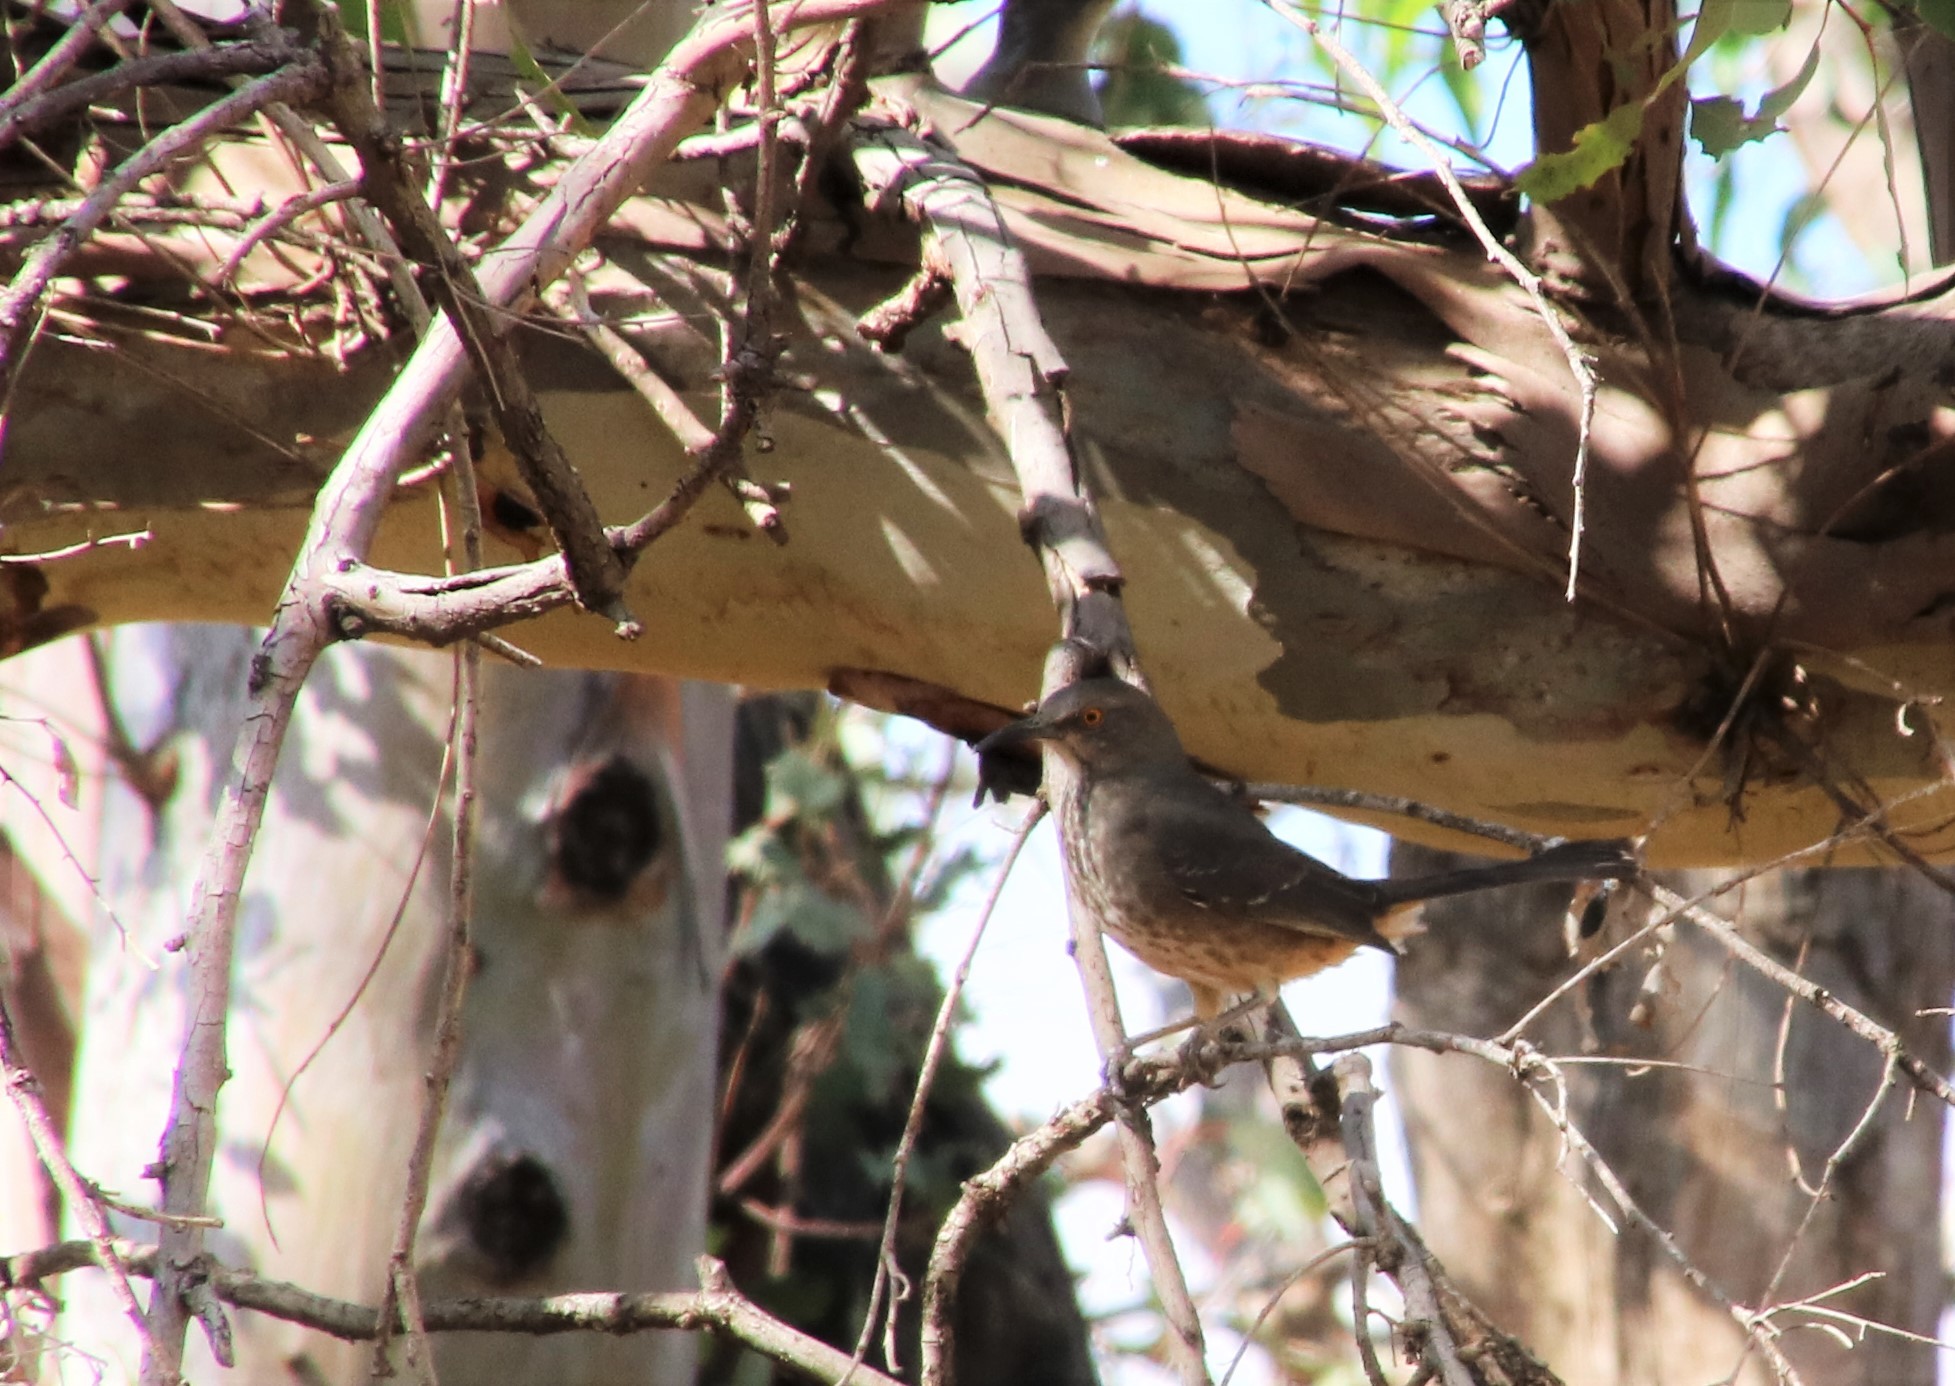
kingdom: Animalia
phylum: Chordata
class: Aves
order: Passeriformes
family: Mimidae
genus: Toxostoma
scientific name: Toxostoma curvirostre
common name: Curve-billed thrasher
